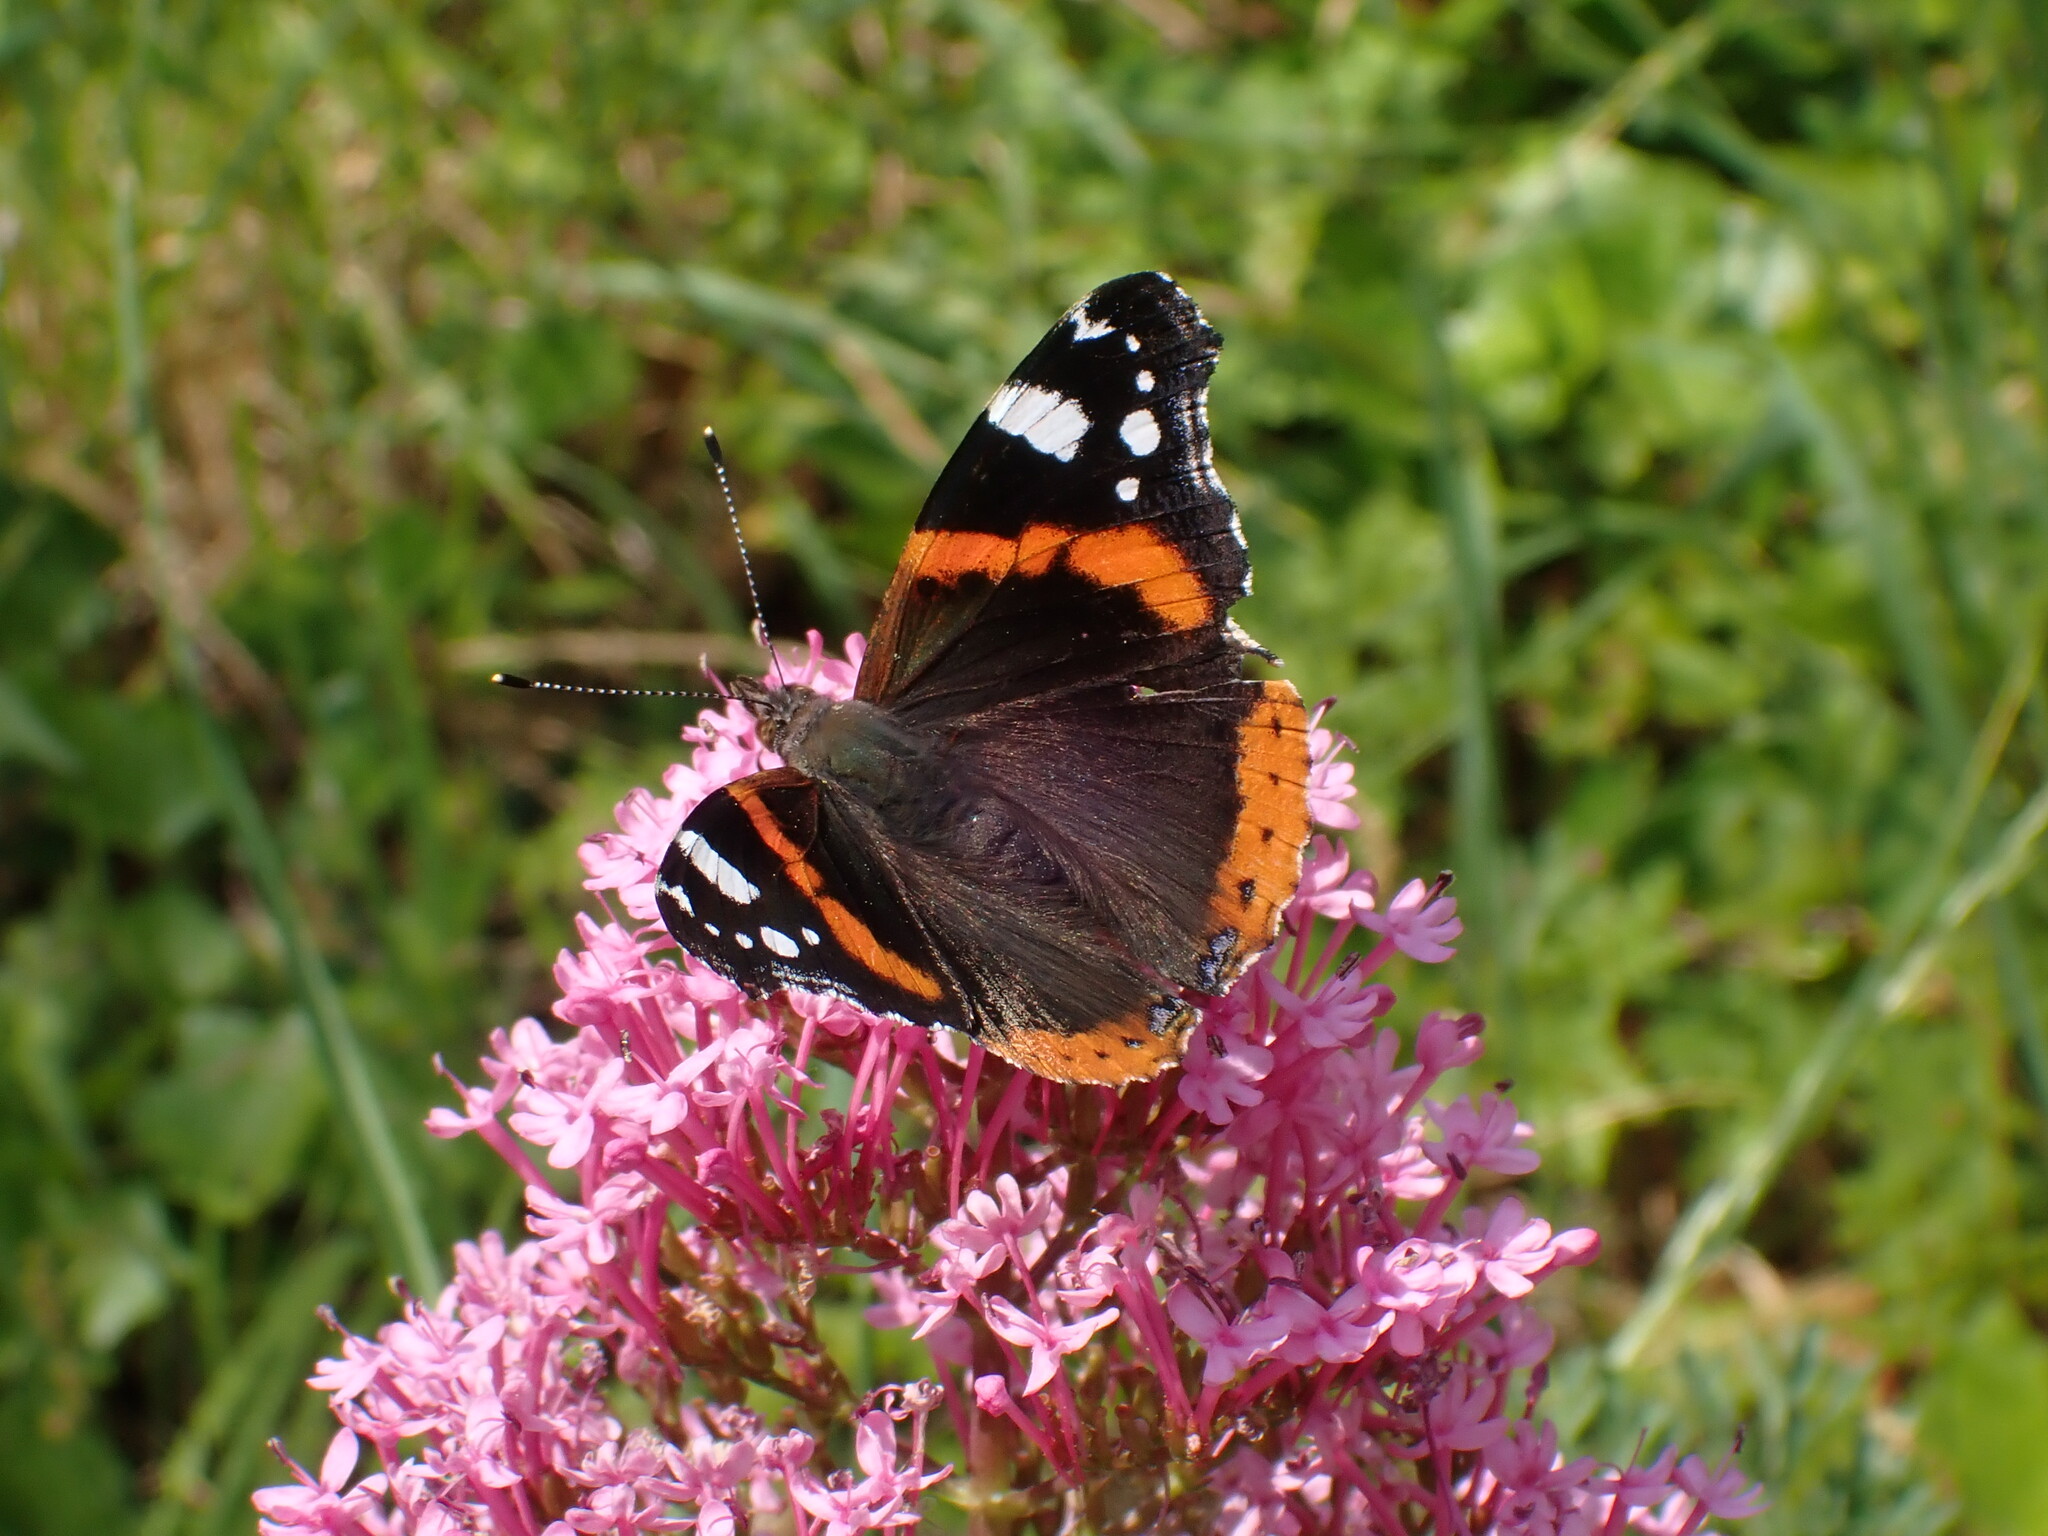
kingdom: Animalia
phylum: Arthropoda
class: Insecta
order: Lepidoptera
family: Nymphalidae
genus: Vanessa
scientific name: Vanessa atalanta
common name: Red admiral
